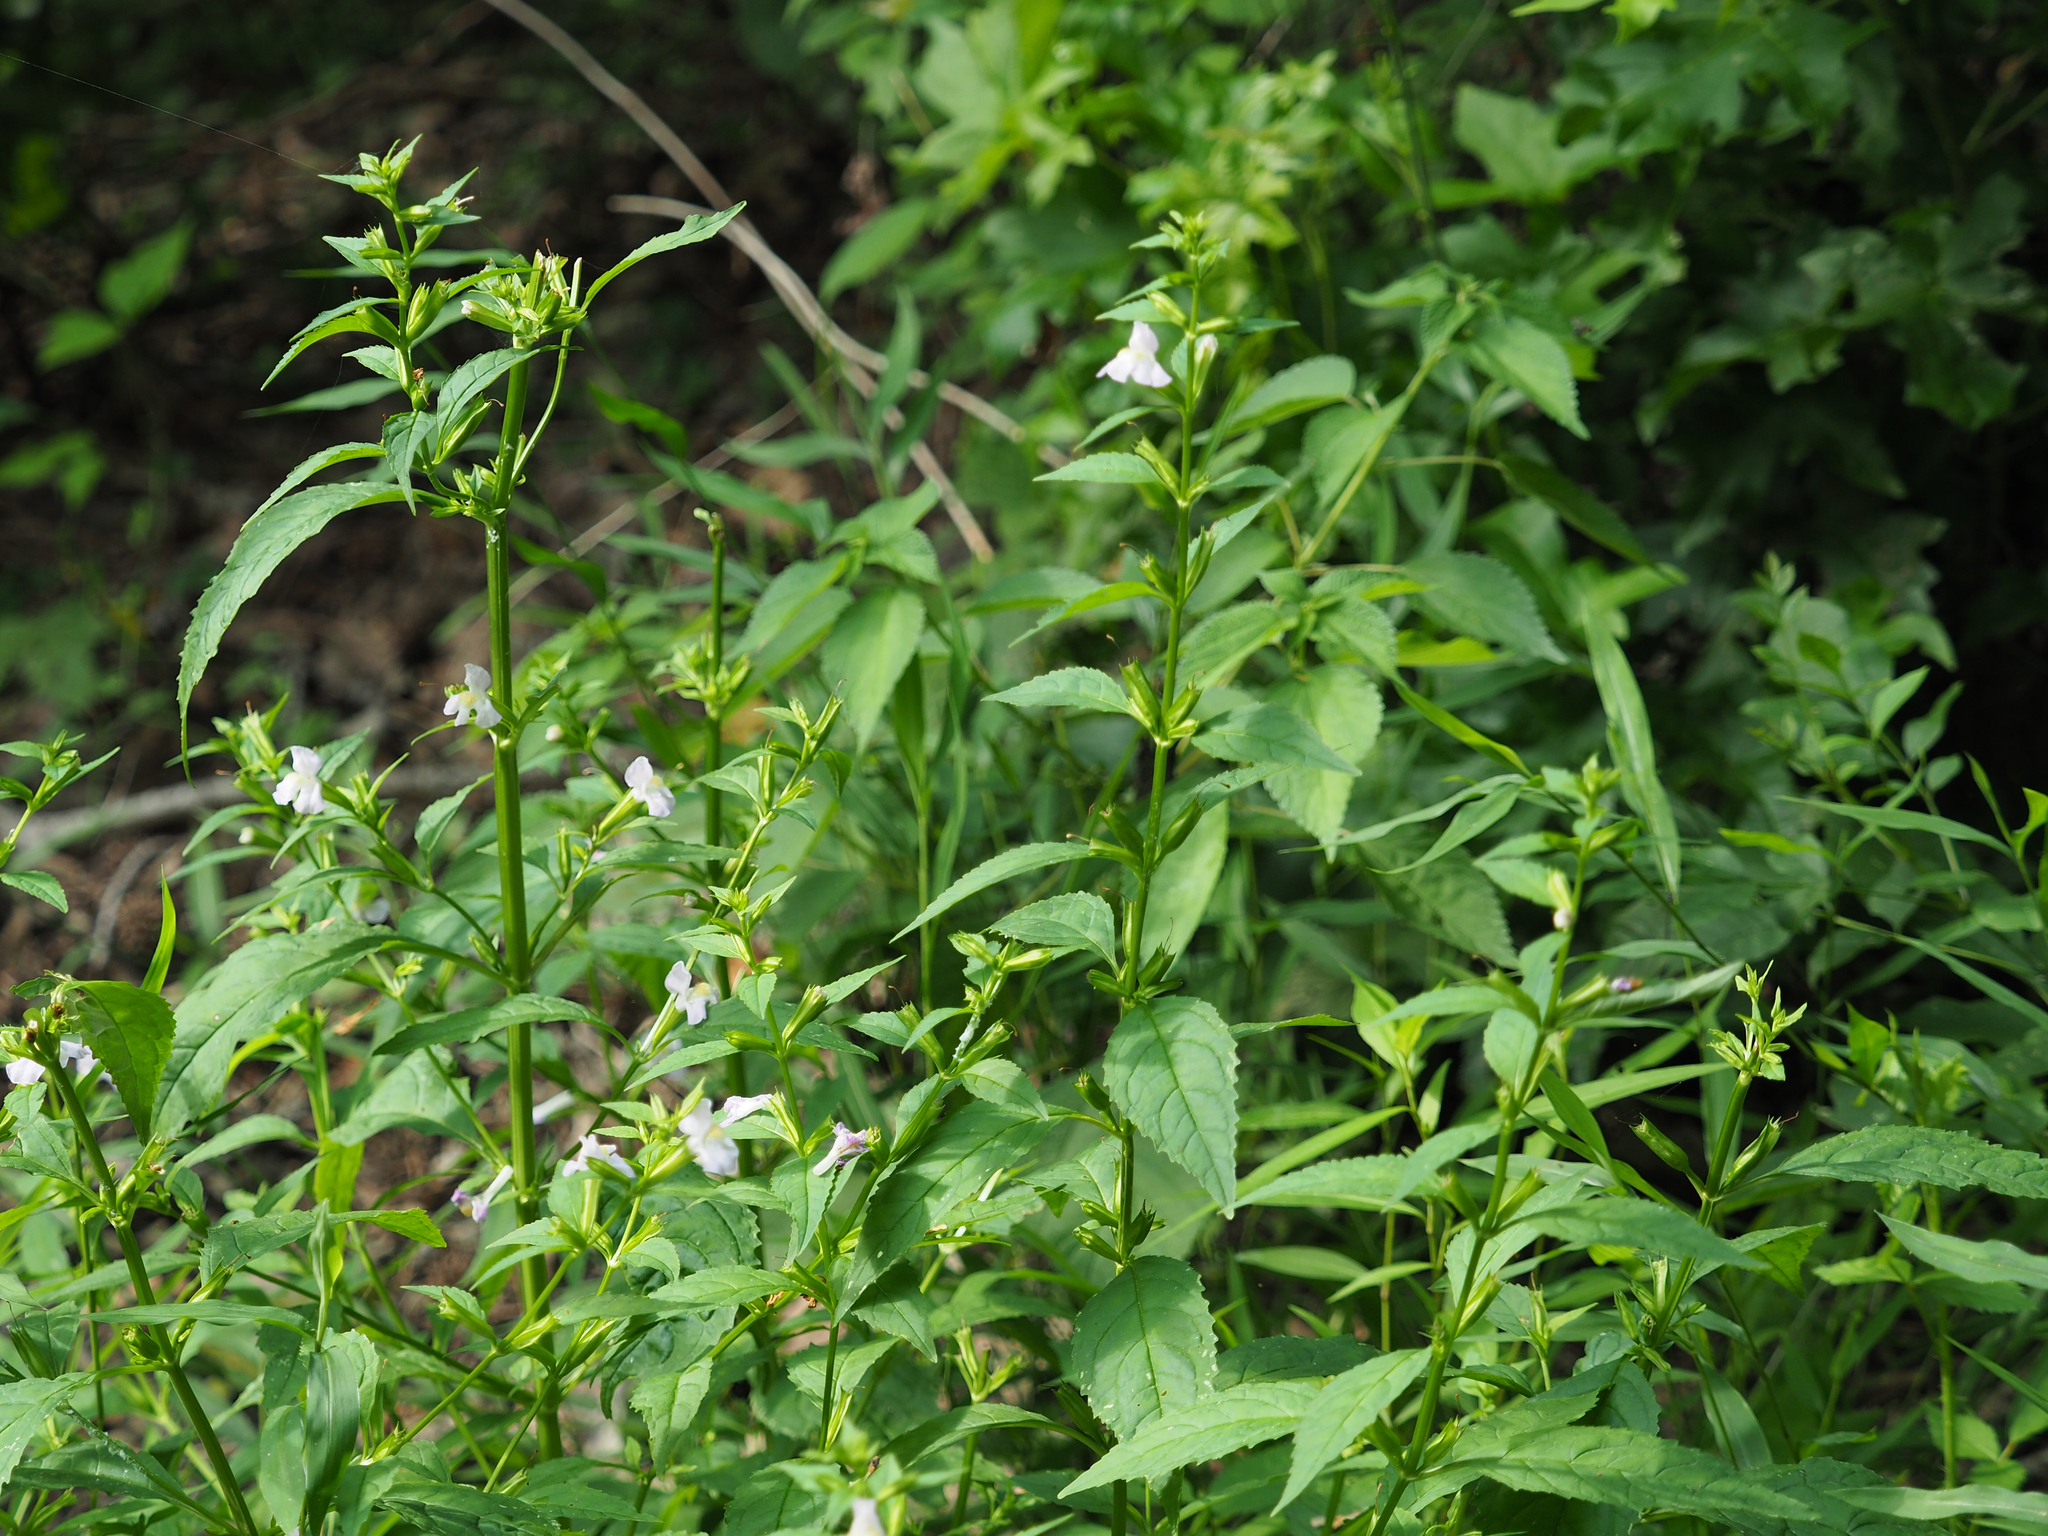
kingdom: Plantae
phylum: Tracheophyta
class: Magnoliopsida
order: Lamiales
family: Phrymaceae
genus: Mimulus
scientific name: Mimulus alatus
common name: Sharp-wing monkey-flower
